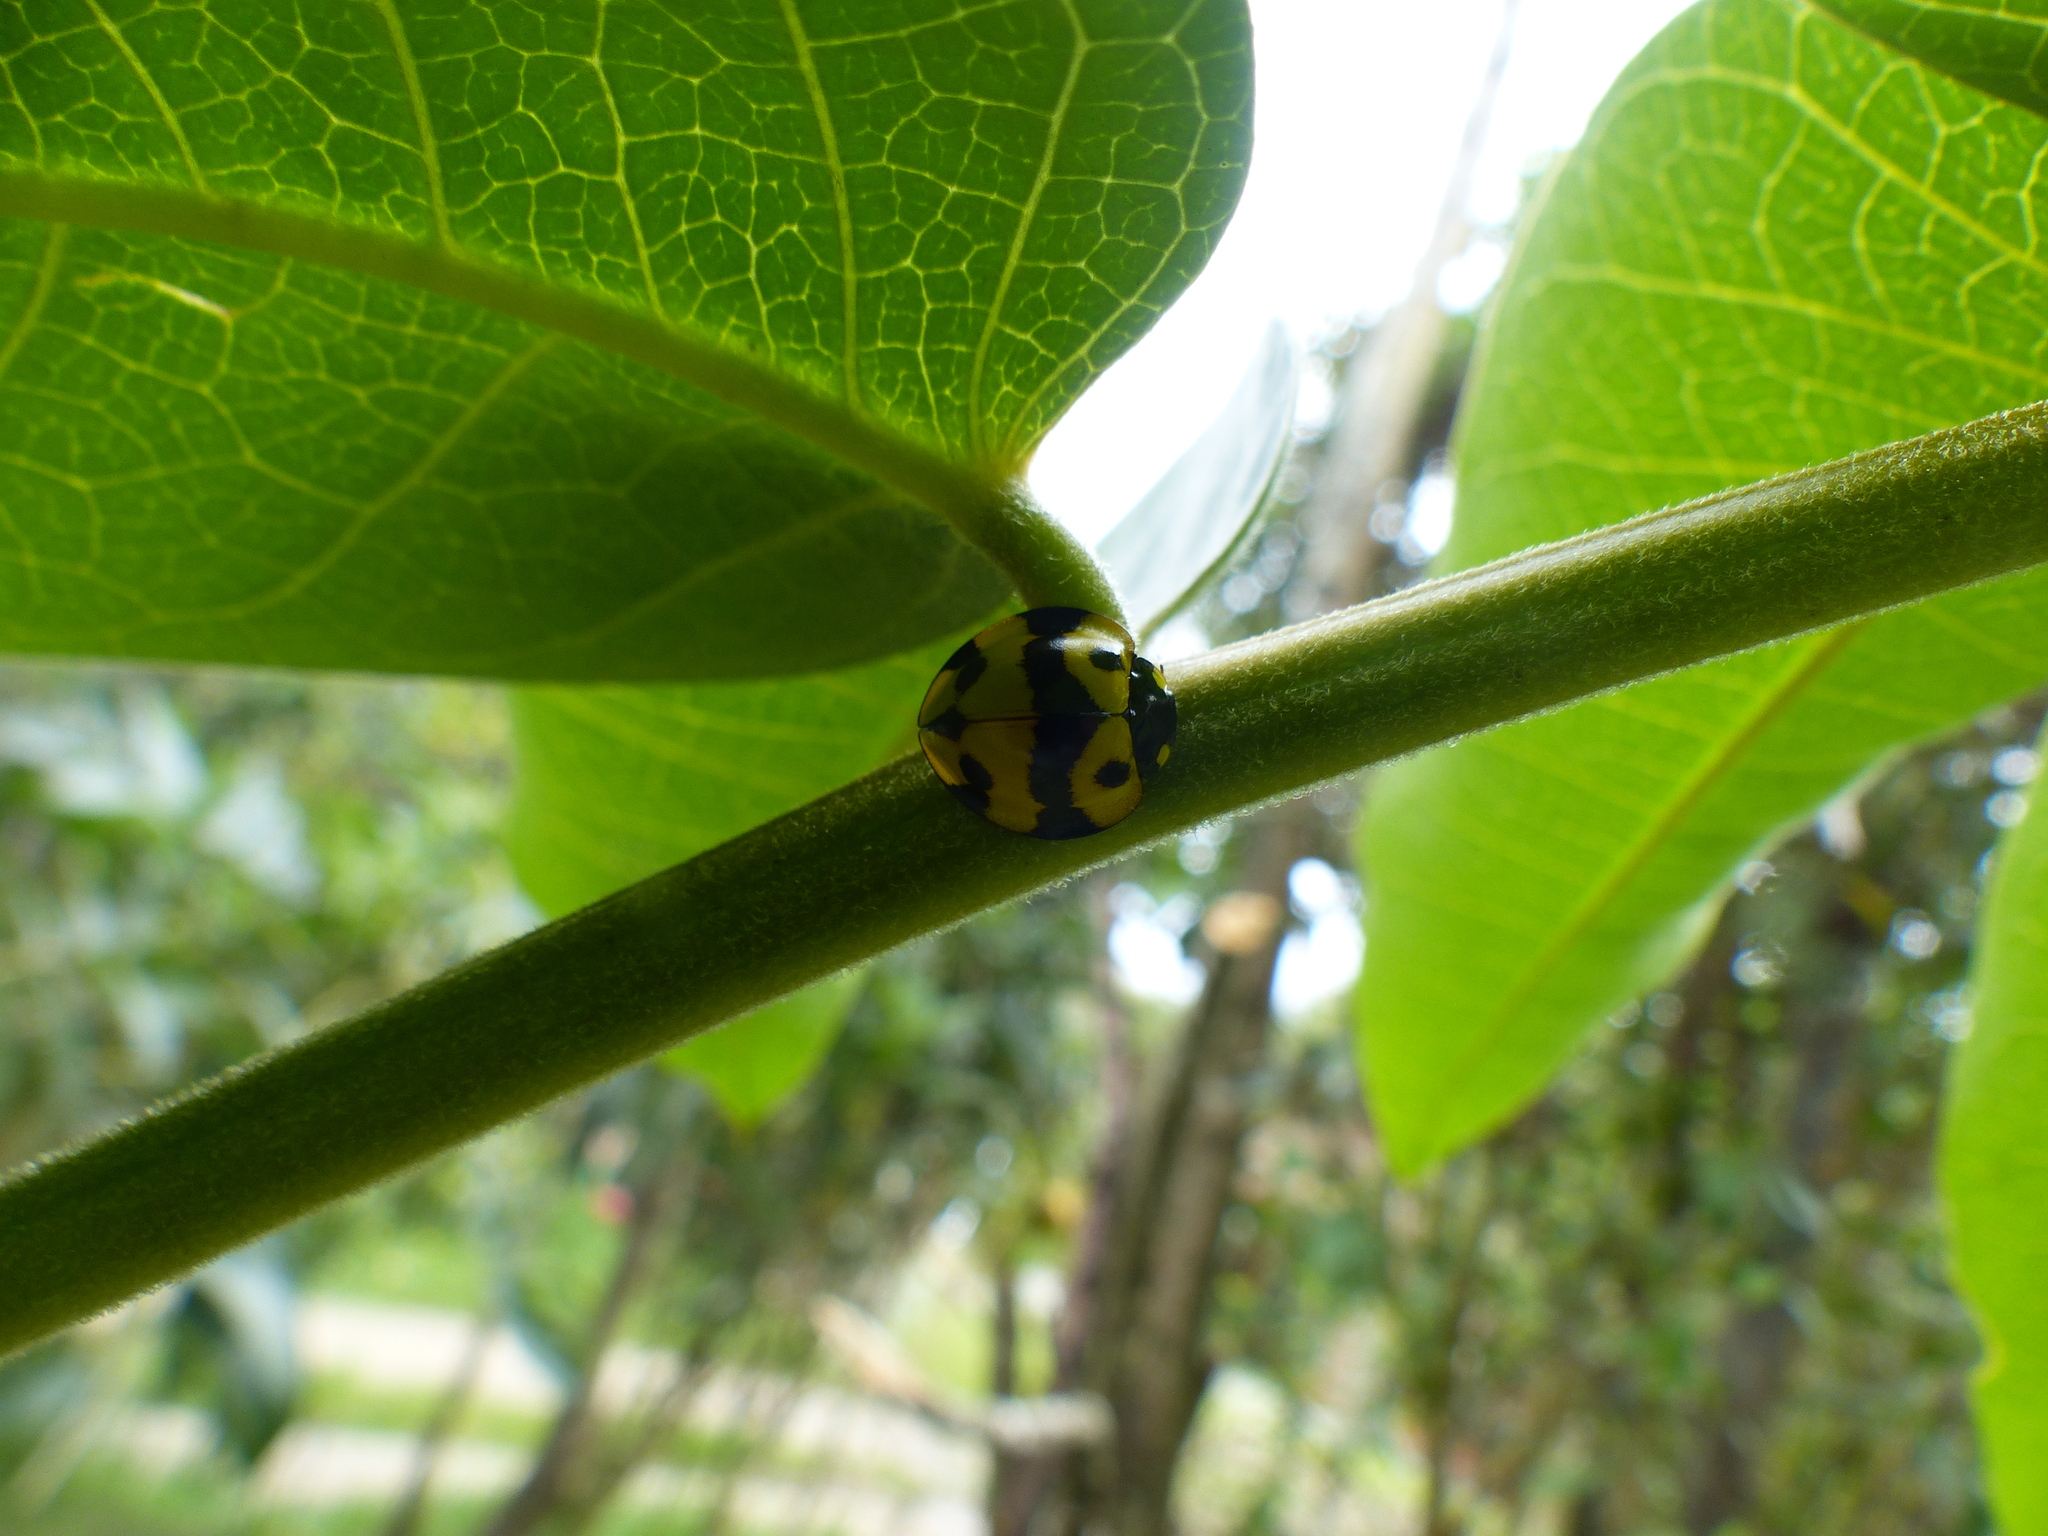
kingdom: Animalia
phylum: Arthropoda
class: Insecta
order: Coleoptera
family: Coccinellidae
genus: Neda
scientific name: Neda norrisi
